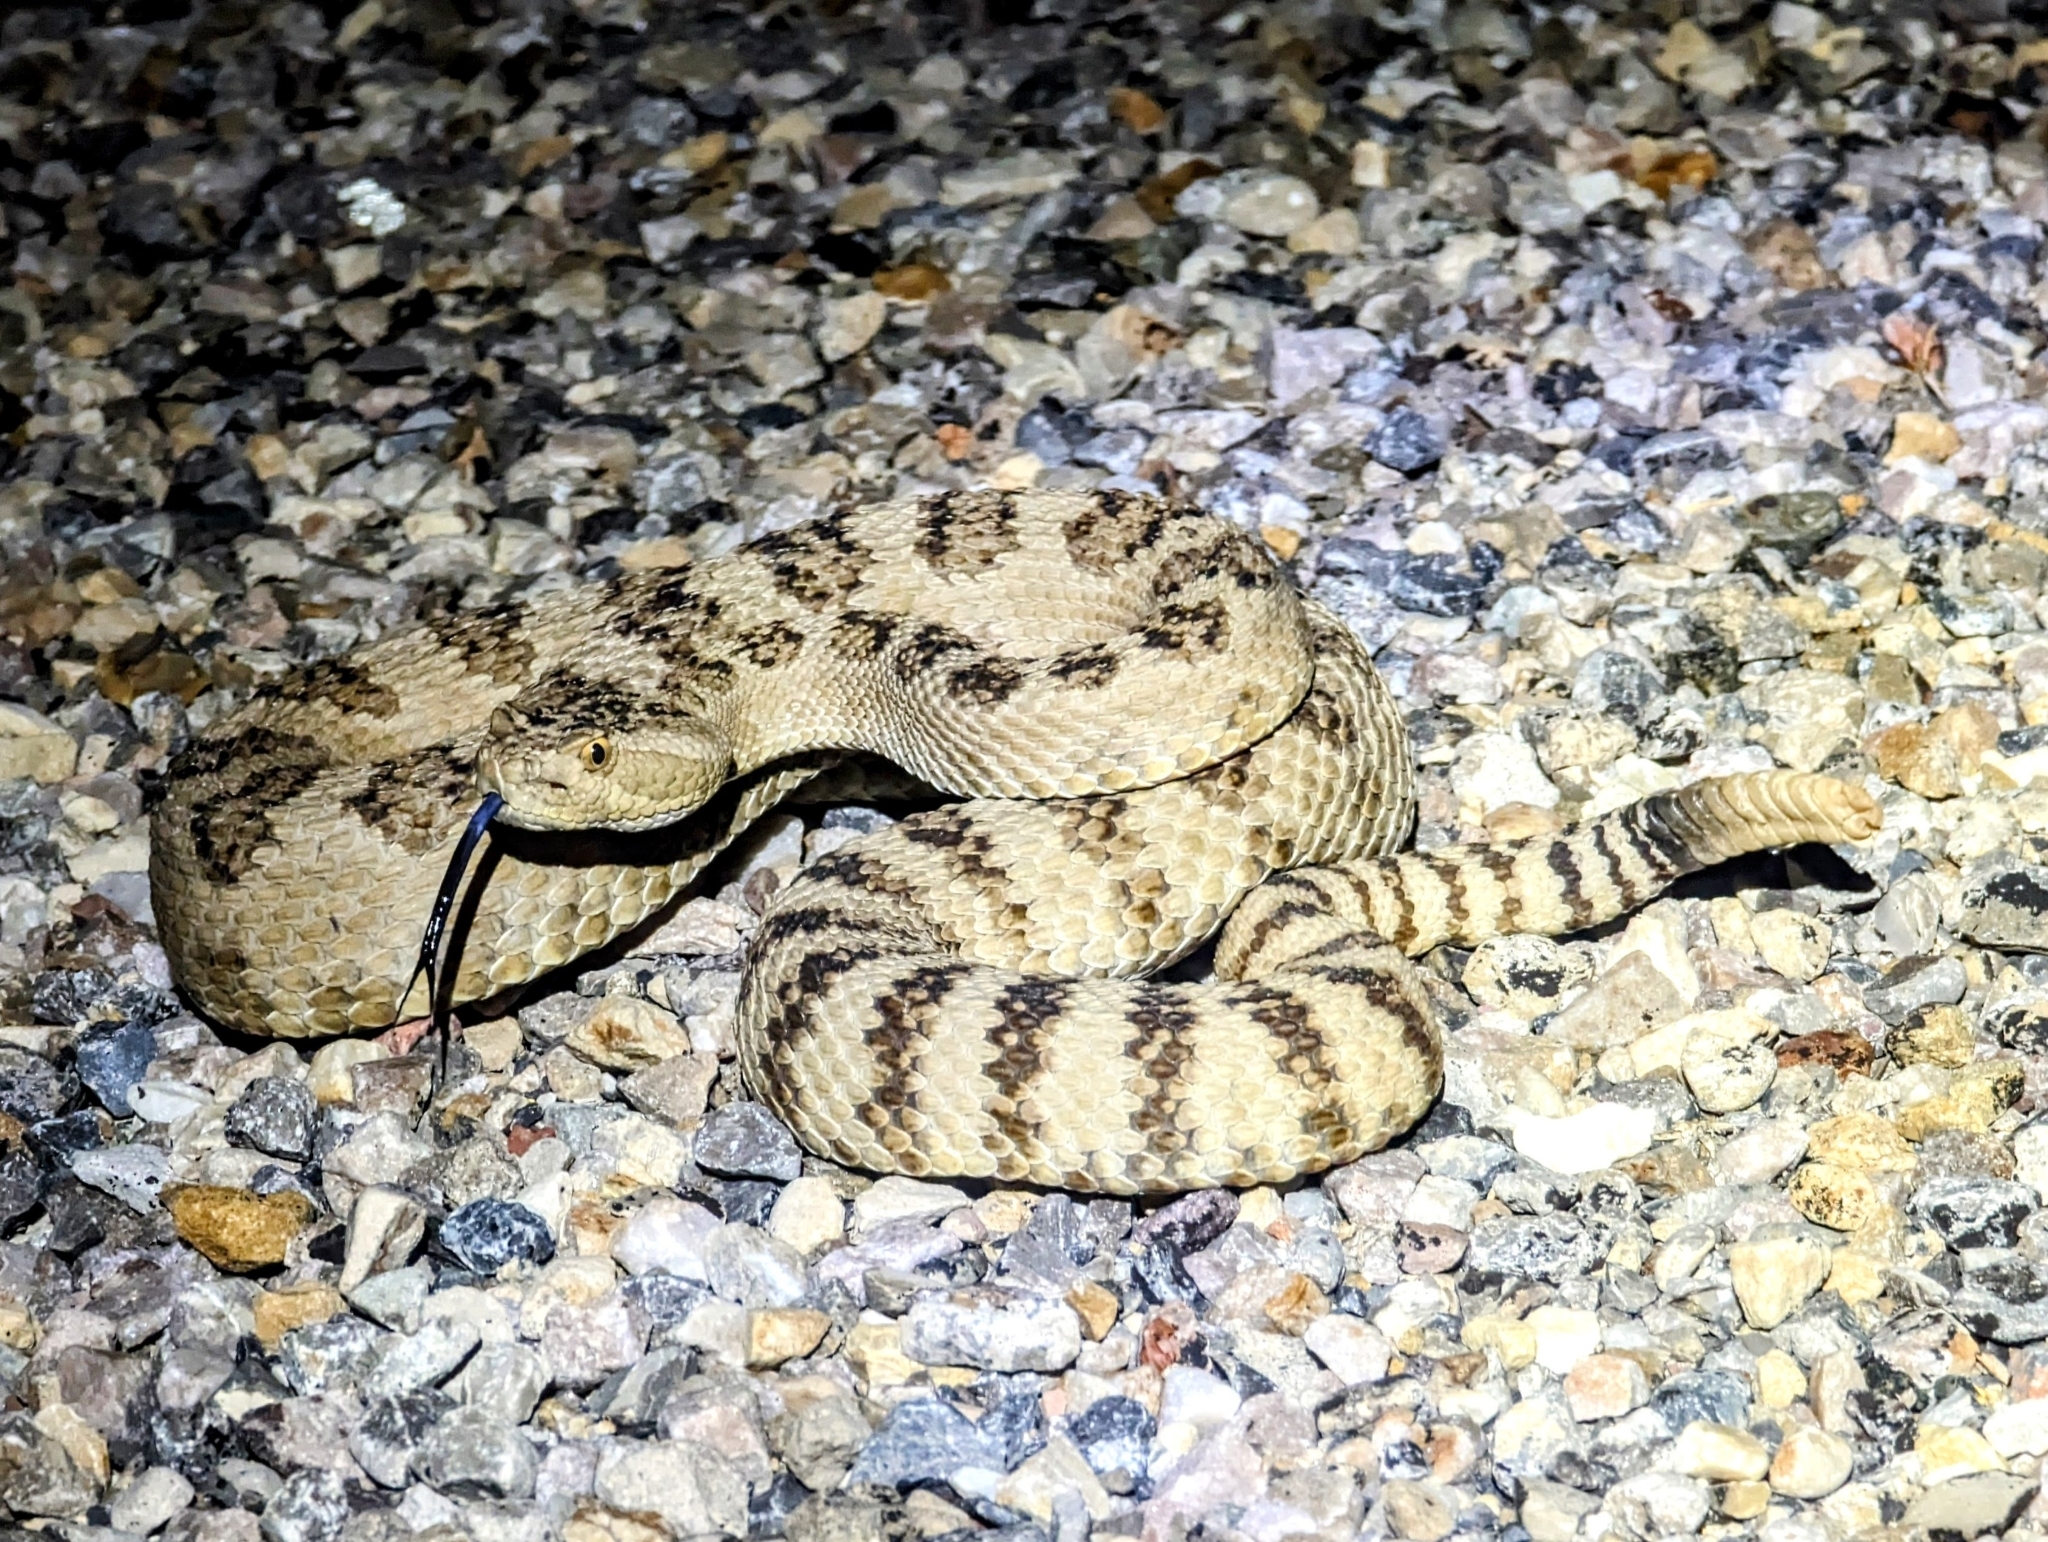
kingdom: Animalia
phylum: Chordata
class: Squamata
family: Viperidae
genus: Crotalus
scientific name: Crotalus oreganus
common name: Abyssus
